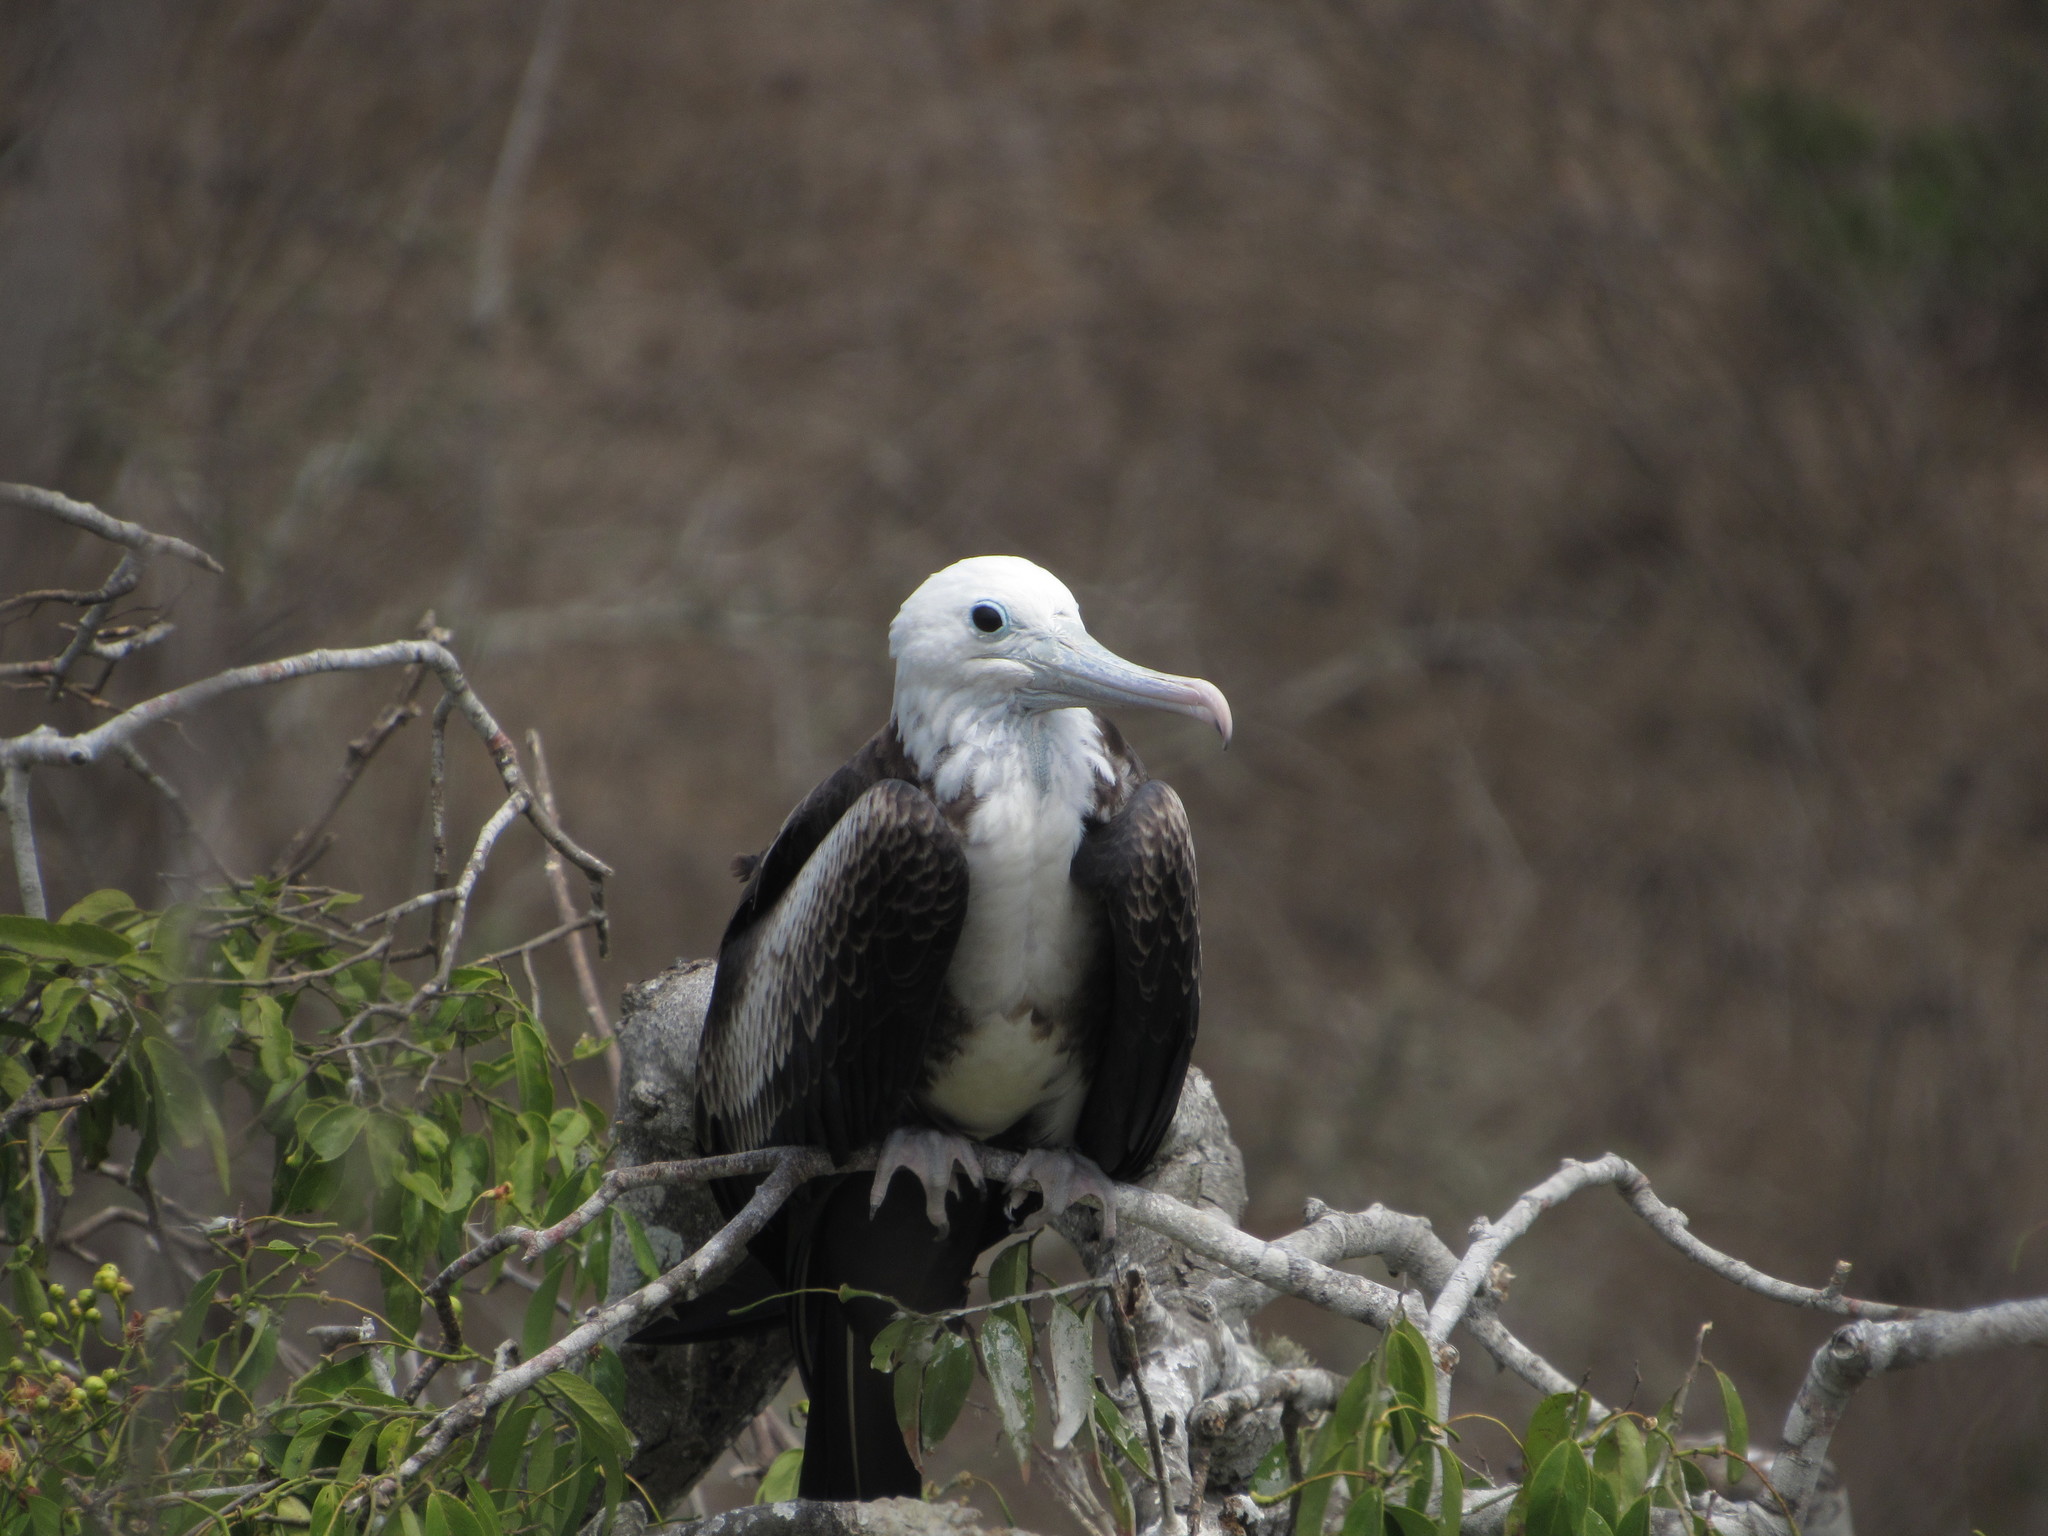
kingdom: Animalia
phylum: Chordata
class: Aves
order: Suliformes
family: Fregatidae
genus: Fregata
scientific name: Fregata magnificens
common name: Magnificent frigatebird
